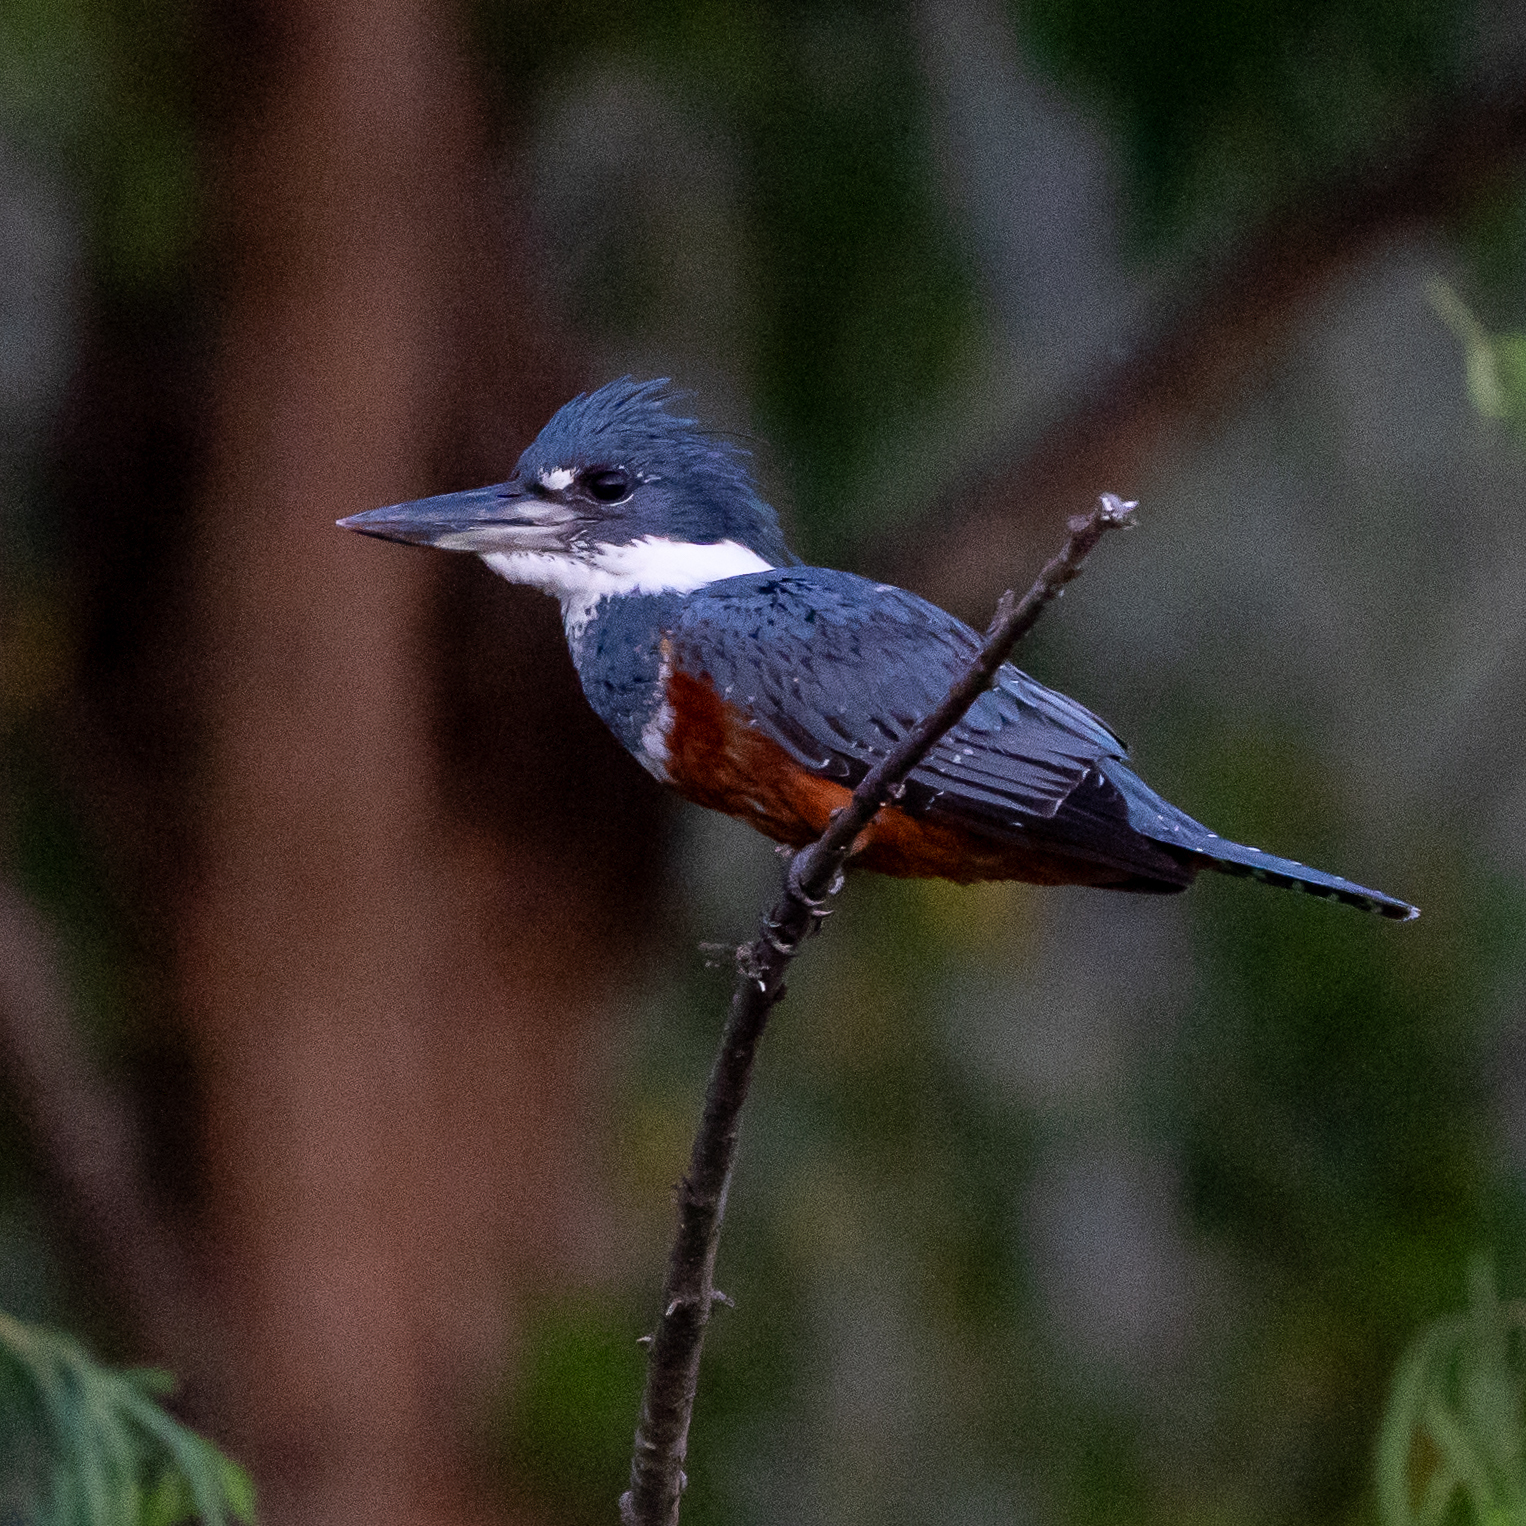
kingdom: Animalia
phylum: Chordata
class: Aves
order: Coraciiformes
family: Alcedinidae
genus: Megaceryle
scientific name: Megaceryle torquata
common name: Ringed kingfisher
